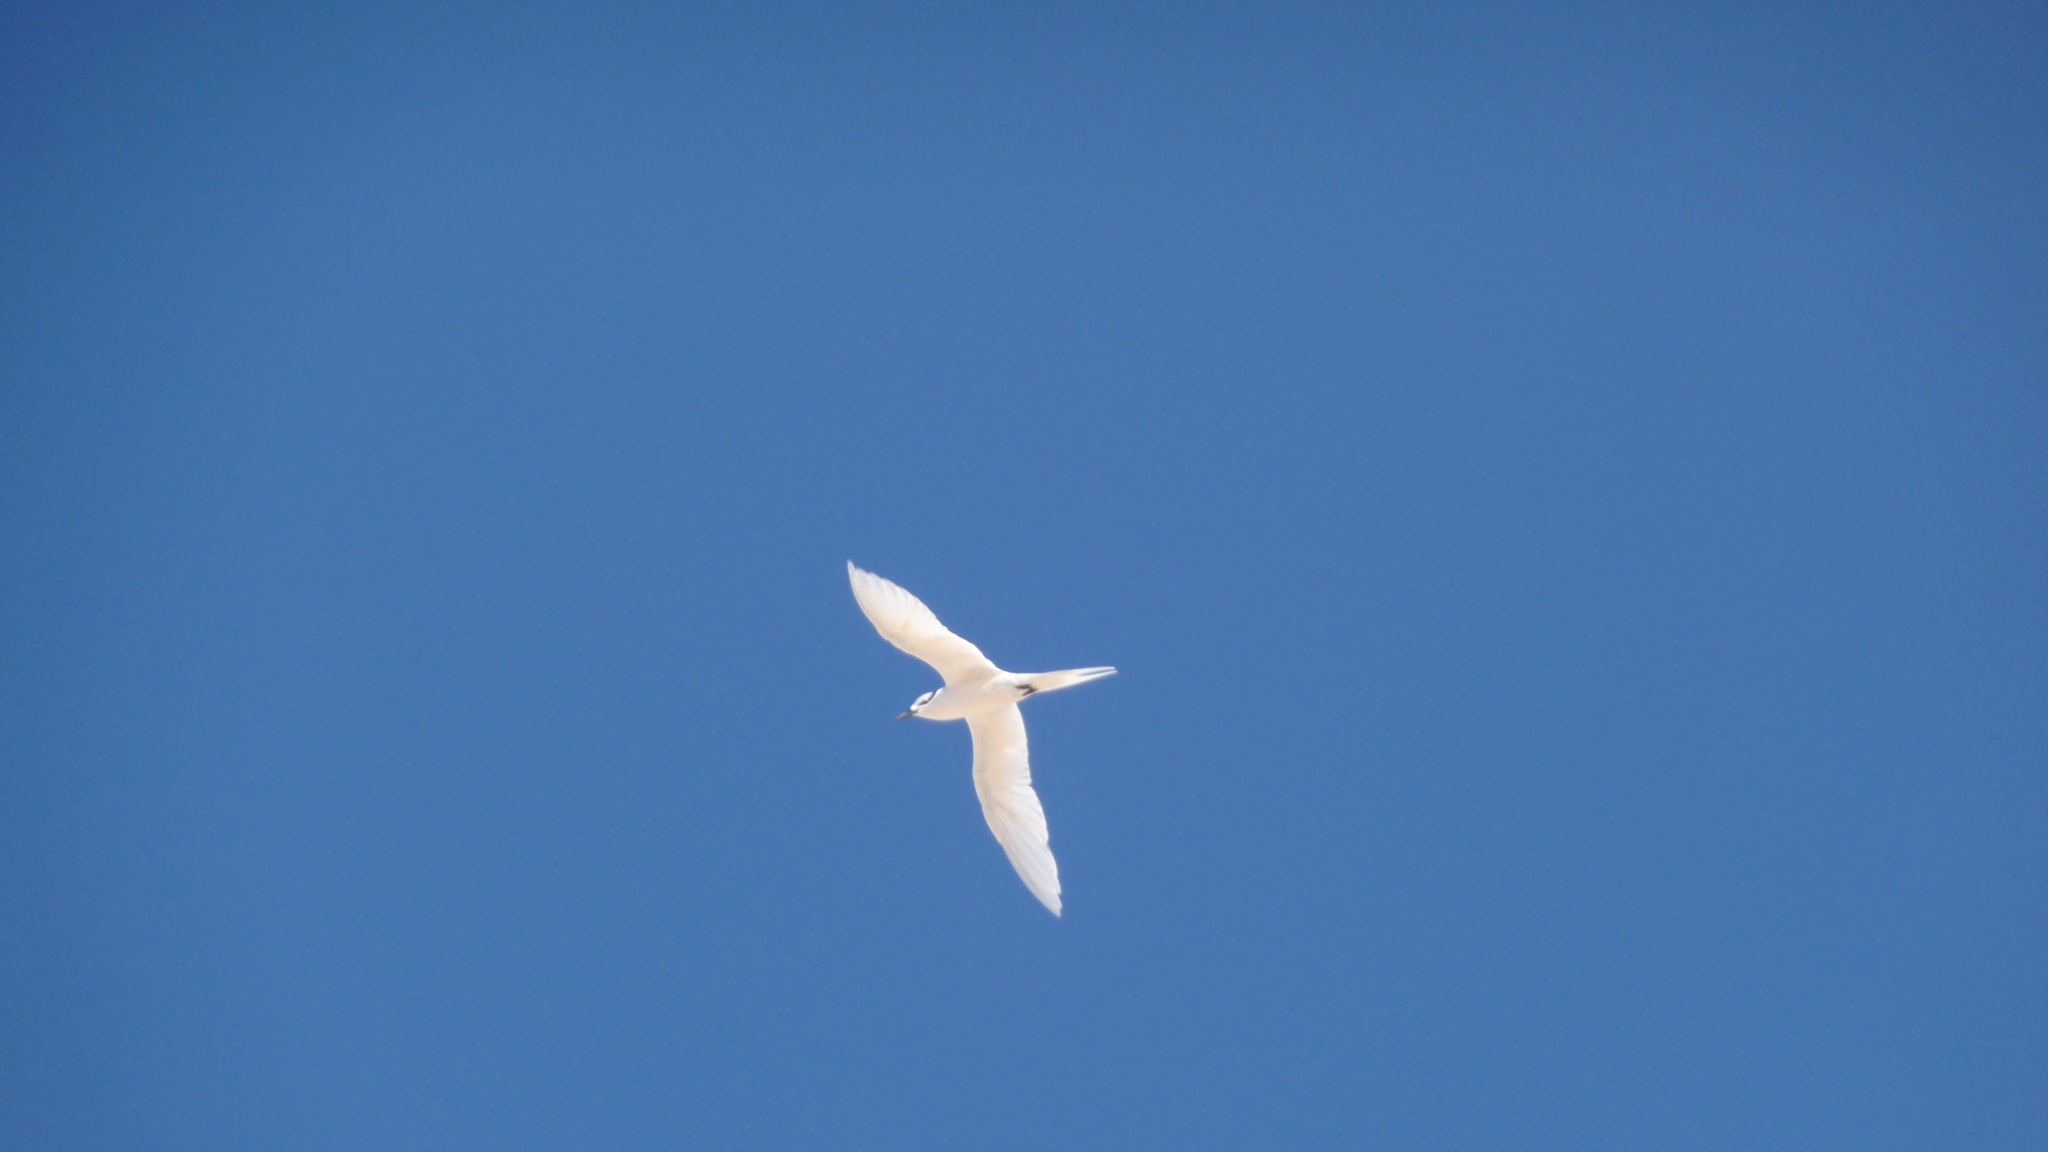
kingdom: Animalia
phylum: Chordata
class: Aves
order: Charadriiformes
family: Laridae
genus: Sterna
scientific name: Sterna sumatrana
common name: Black-naped tern
